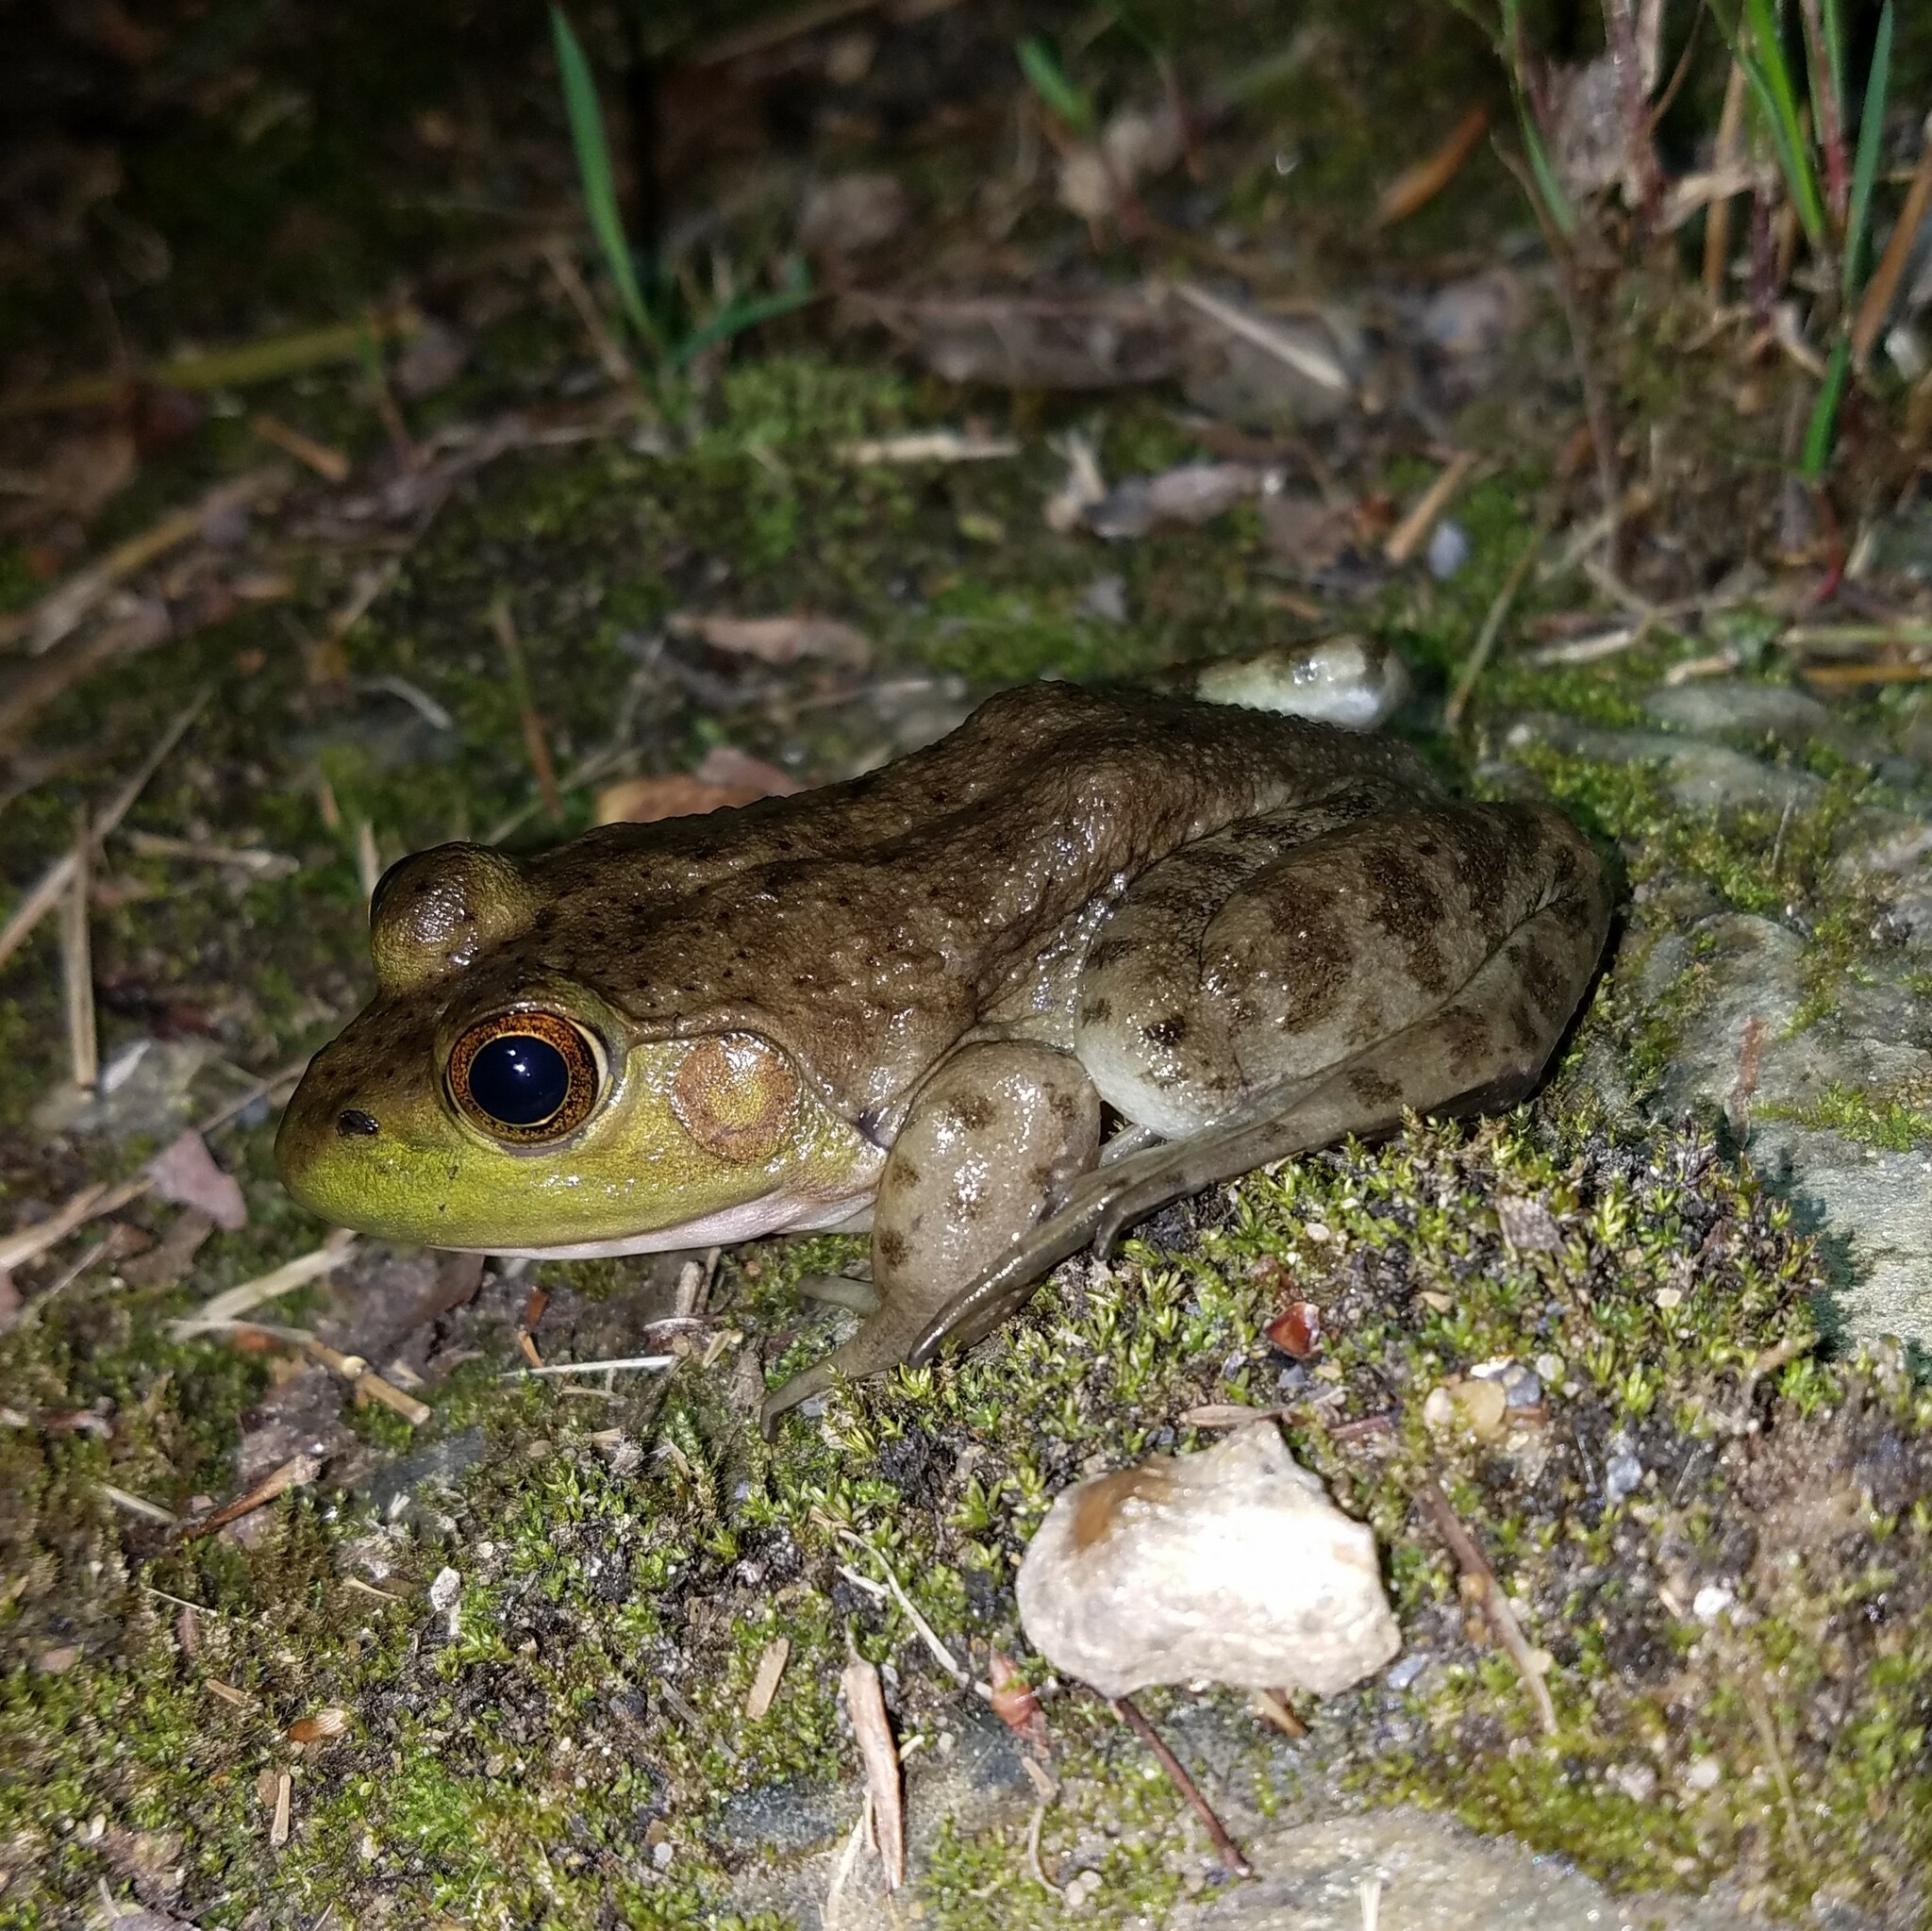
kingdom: Animalia
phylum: Chordata
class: Amphibia
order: Anura
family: Ranidae
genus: Lithobates
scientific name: Lithobates catesbeianus
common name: American bullfrog
